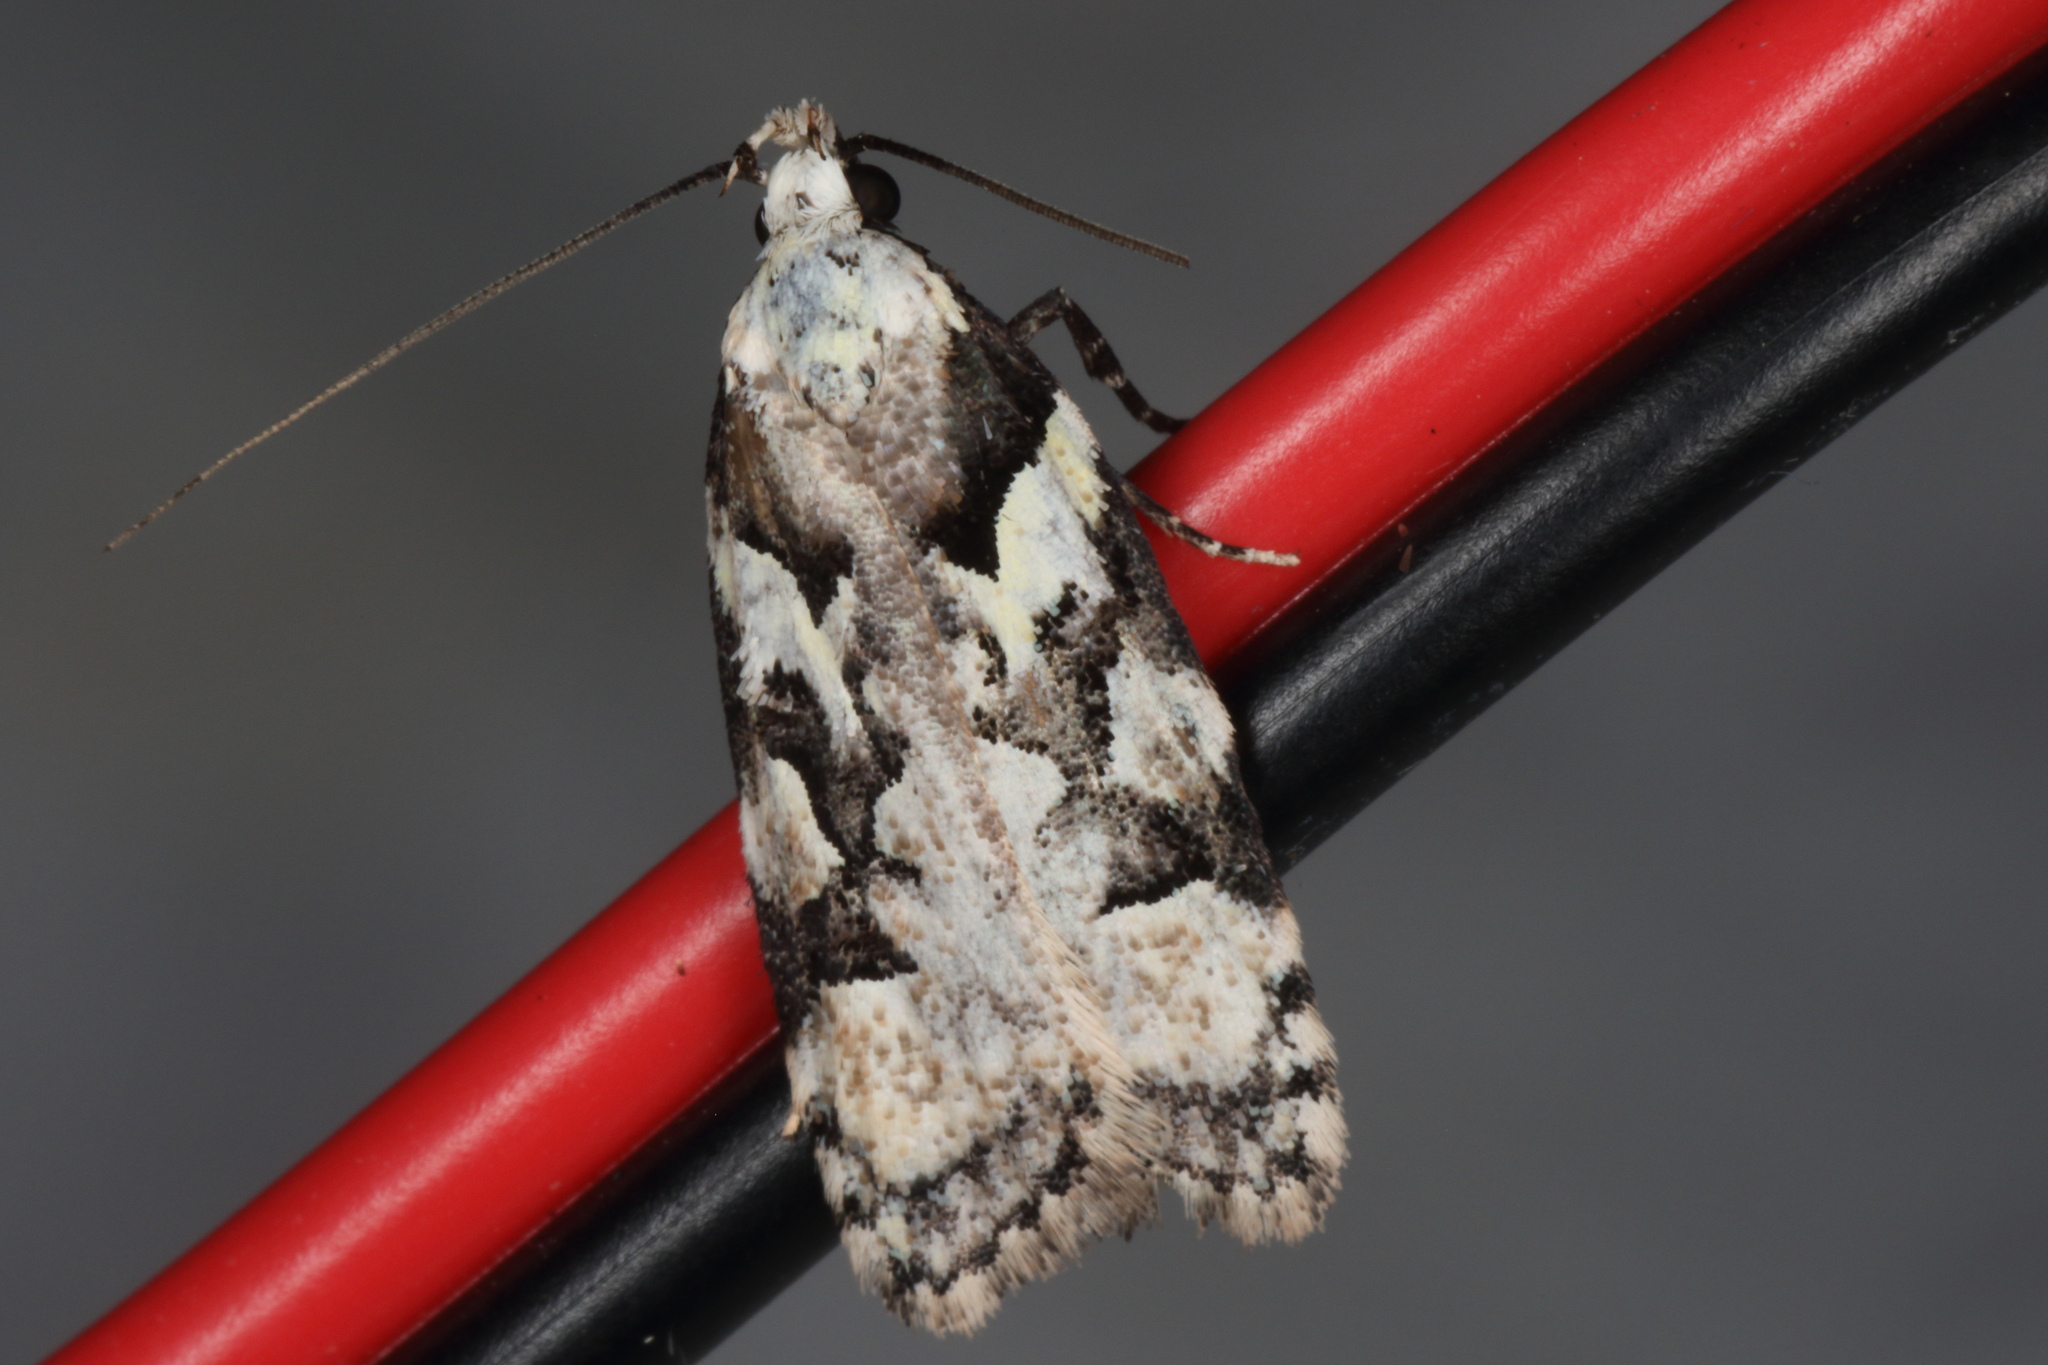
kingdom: Animalia
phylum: Arthropoda
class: Insecta
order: Lepidoptera
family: Oecophoridae
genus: Izatha
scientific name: Izatha epiphanes
